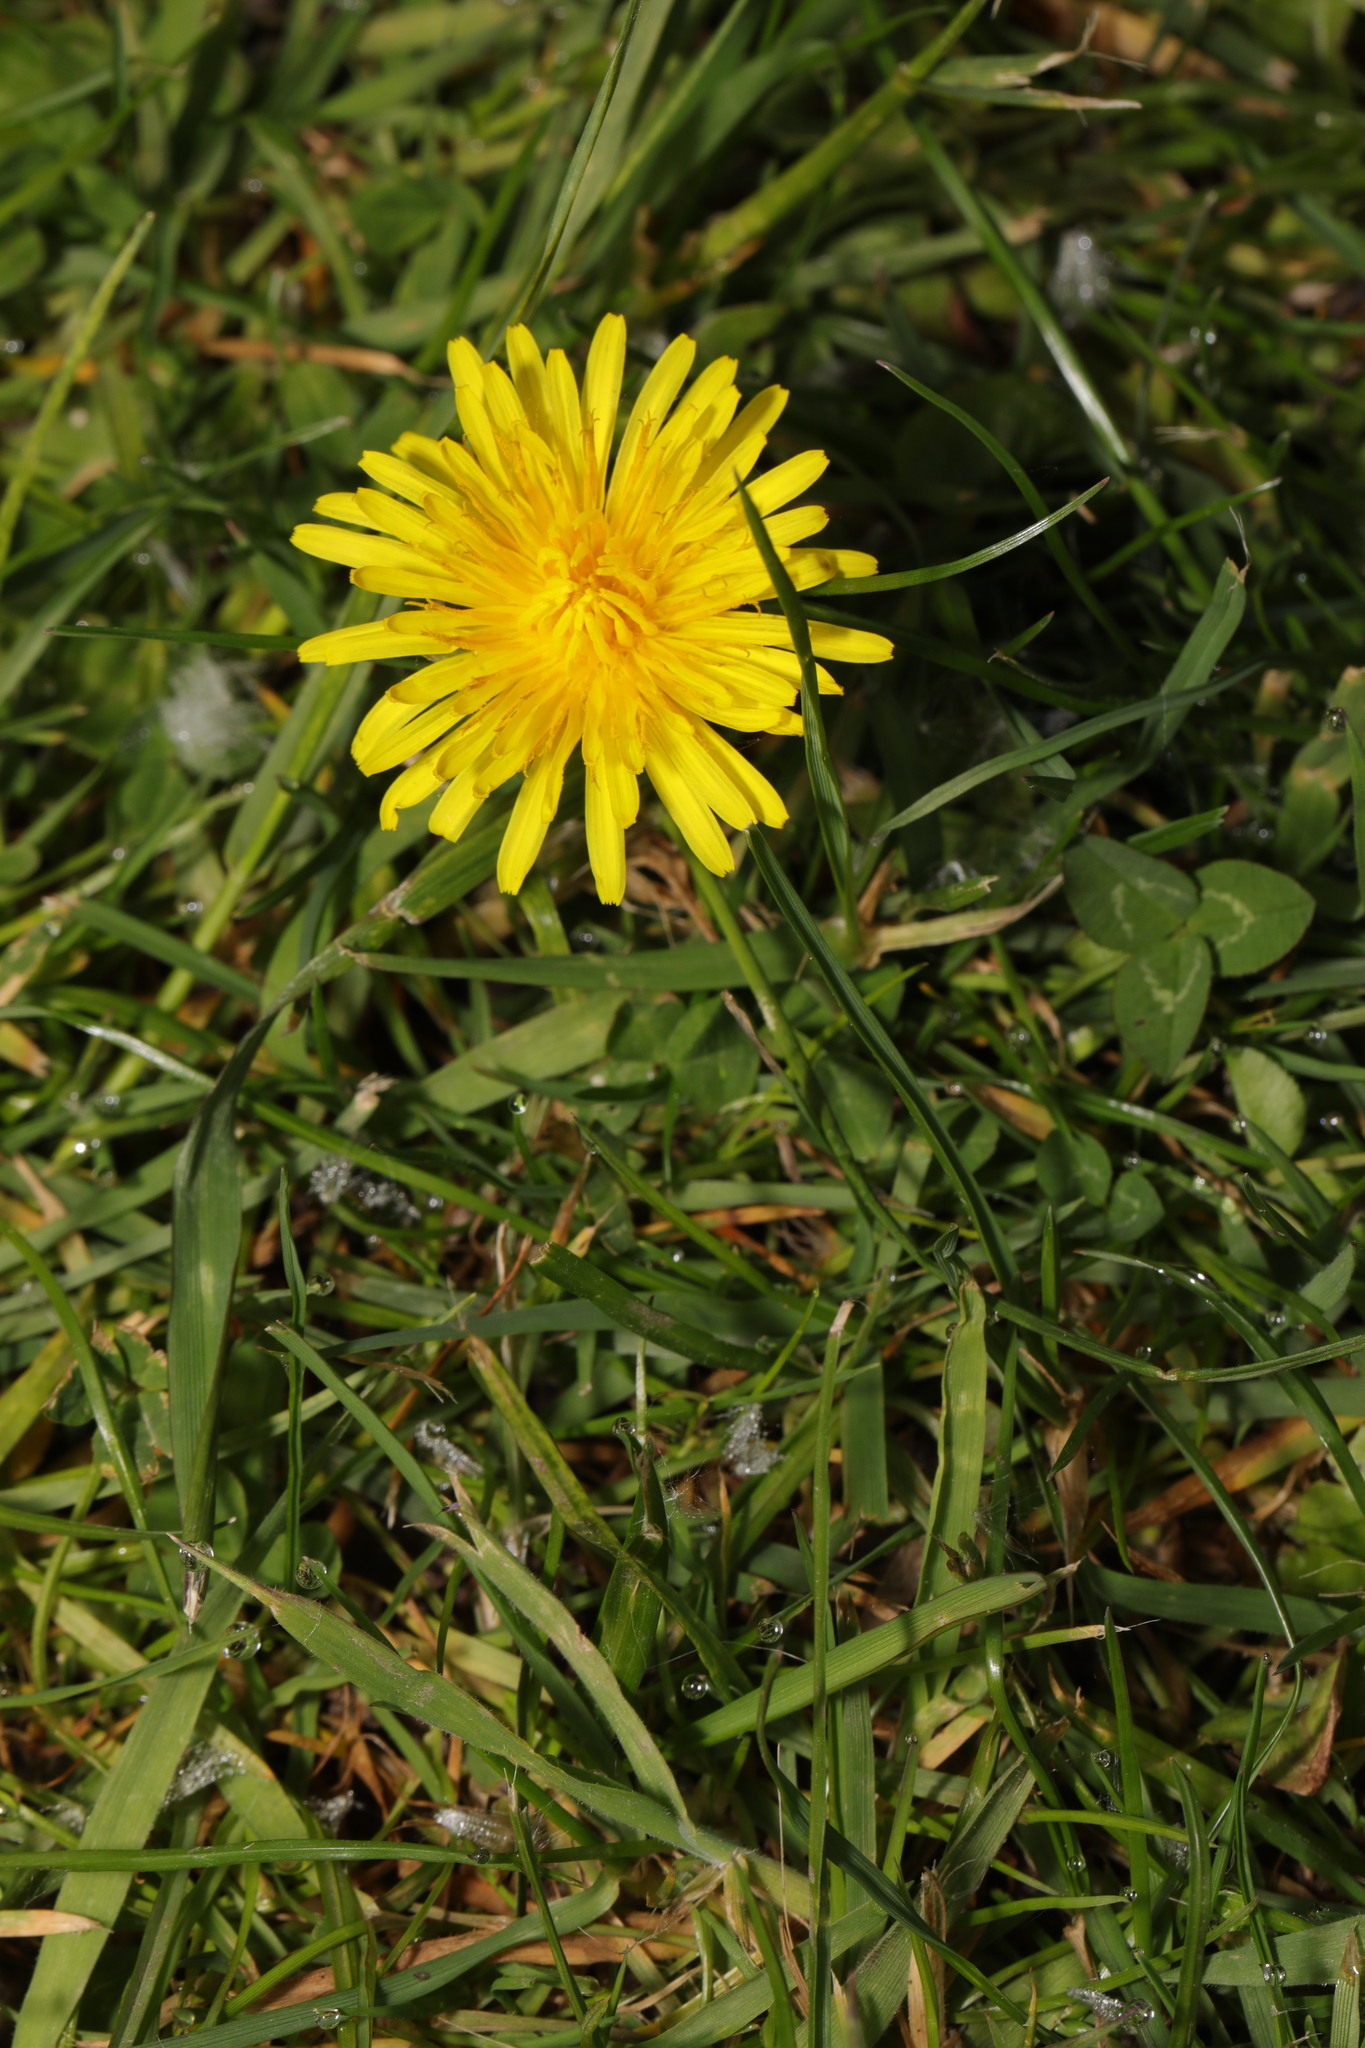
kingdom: Plantae
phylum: Tracheophyta
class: Magnoliopsida
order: Asterales
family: Asteraceae
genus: Taraxacum
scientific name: Taraxacum officinale
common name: Common dandelion
